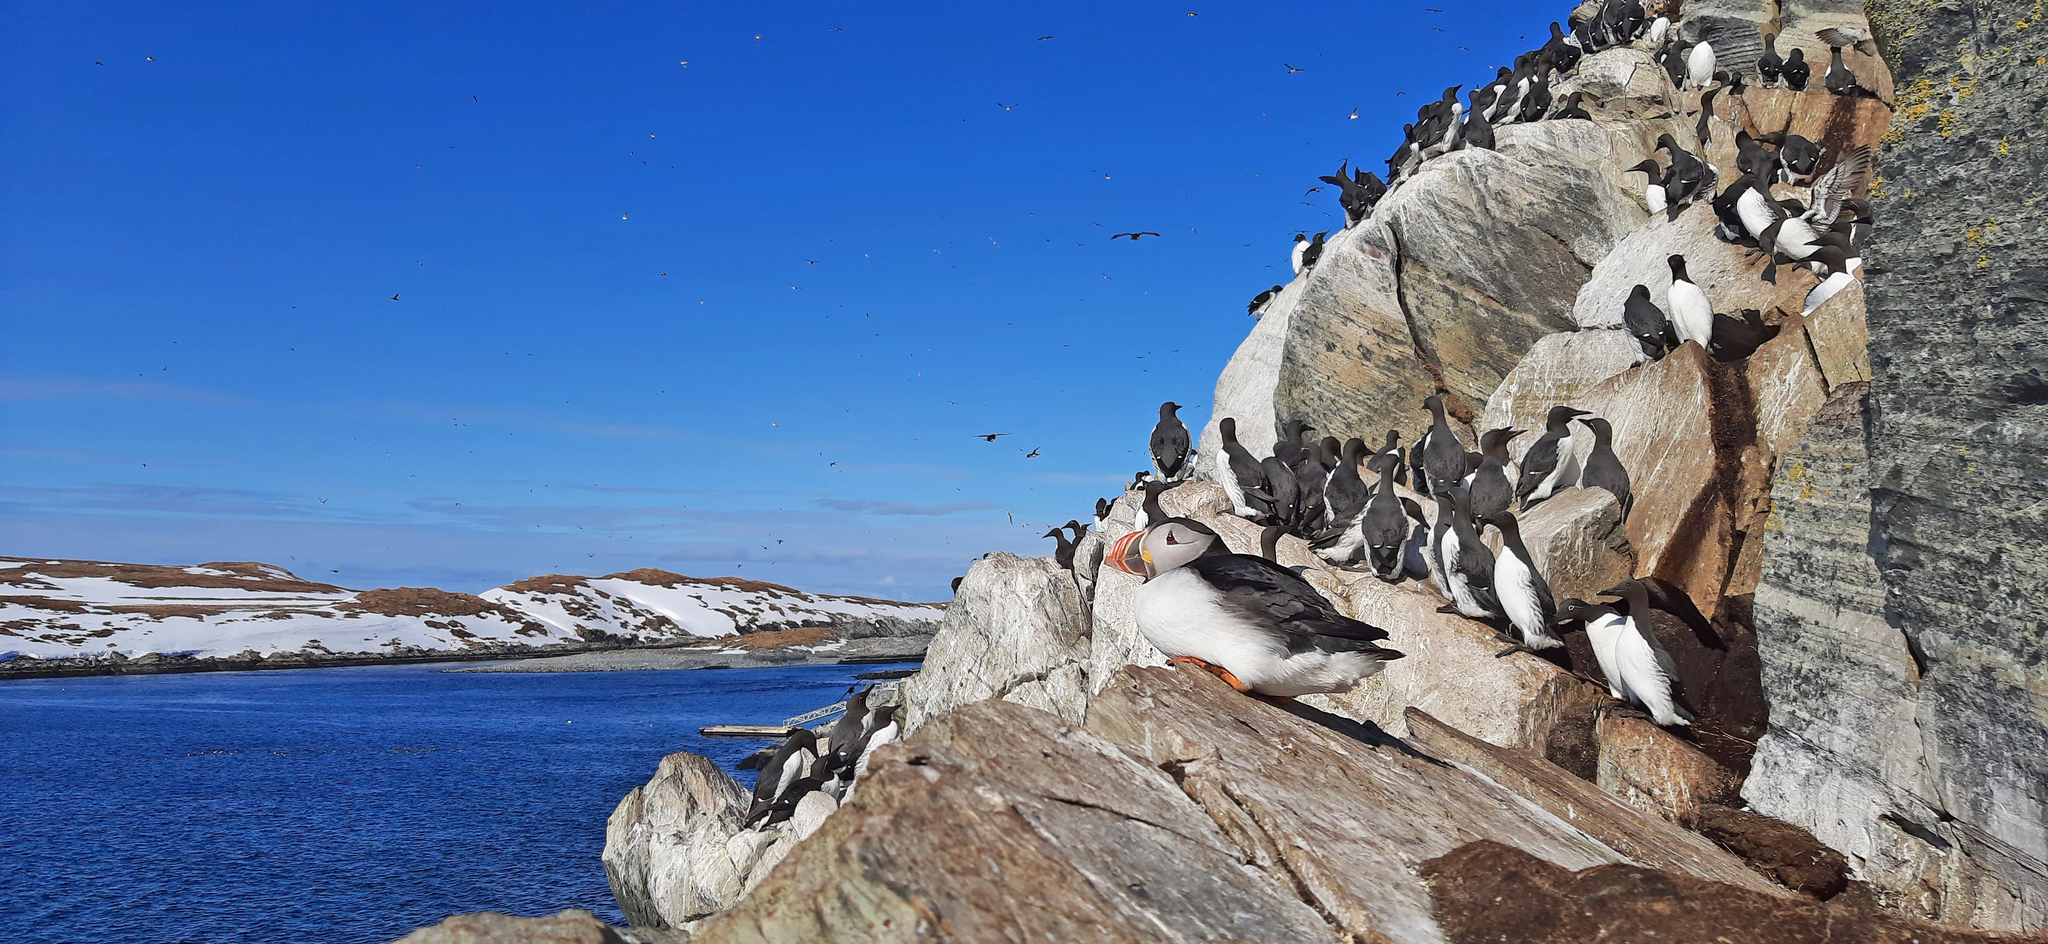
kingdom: Animalia
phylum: Chordata
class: Aves
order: Charadriiformes
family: Alcidae
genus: Fratercula
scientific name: Fratercula arctica
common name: Atlantic puffin
